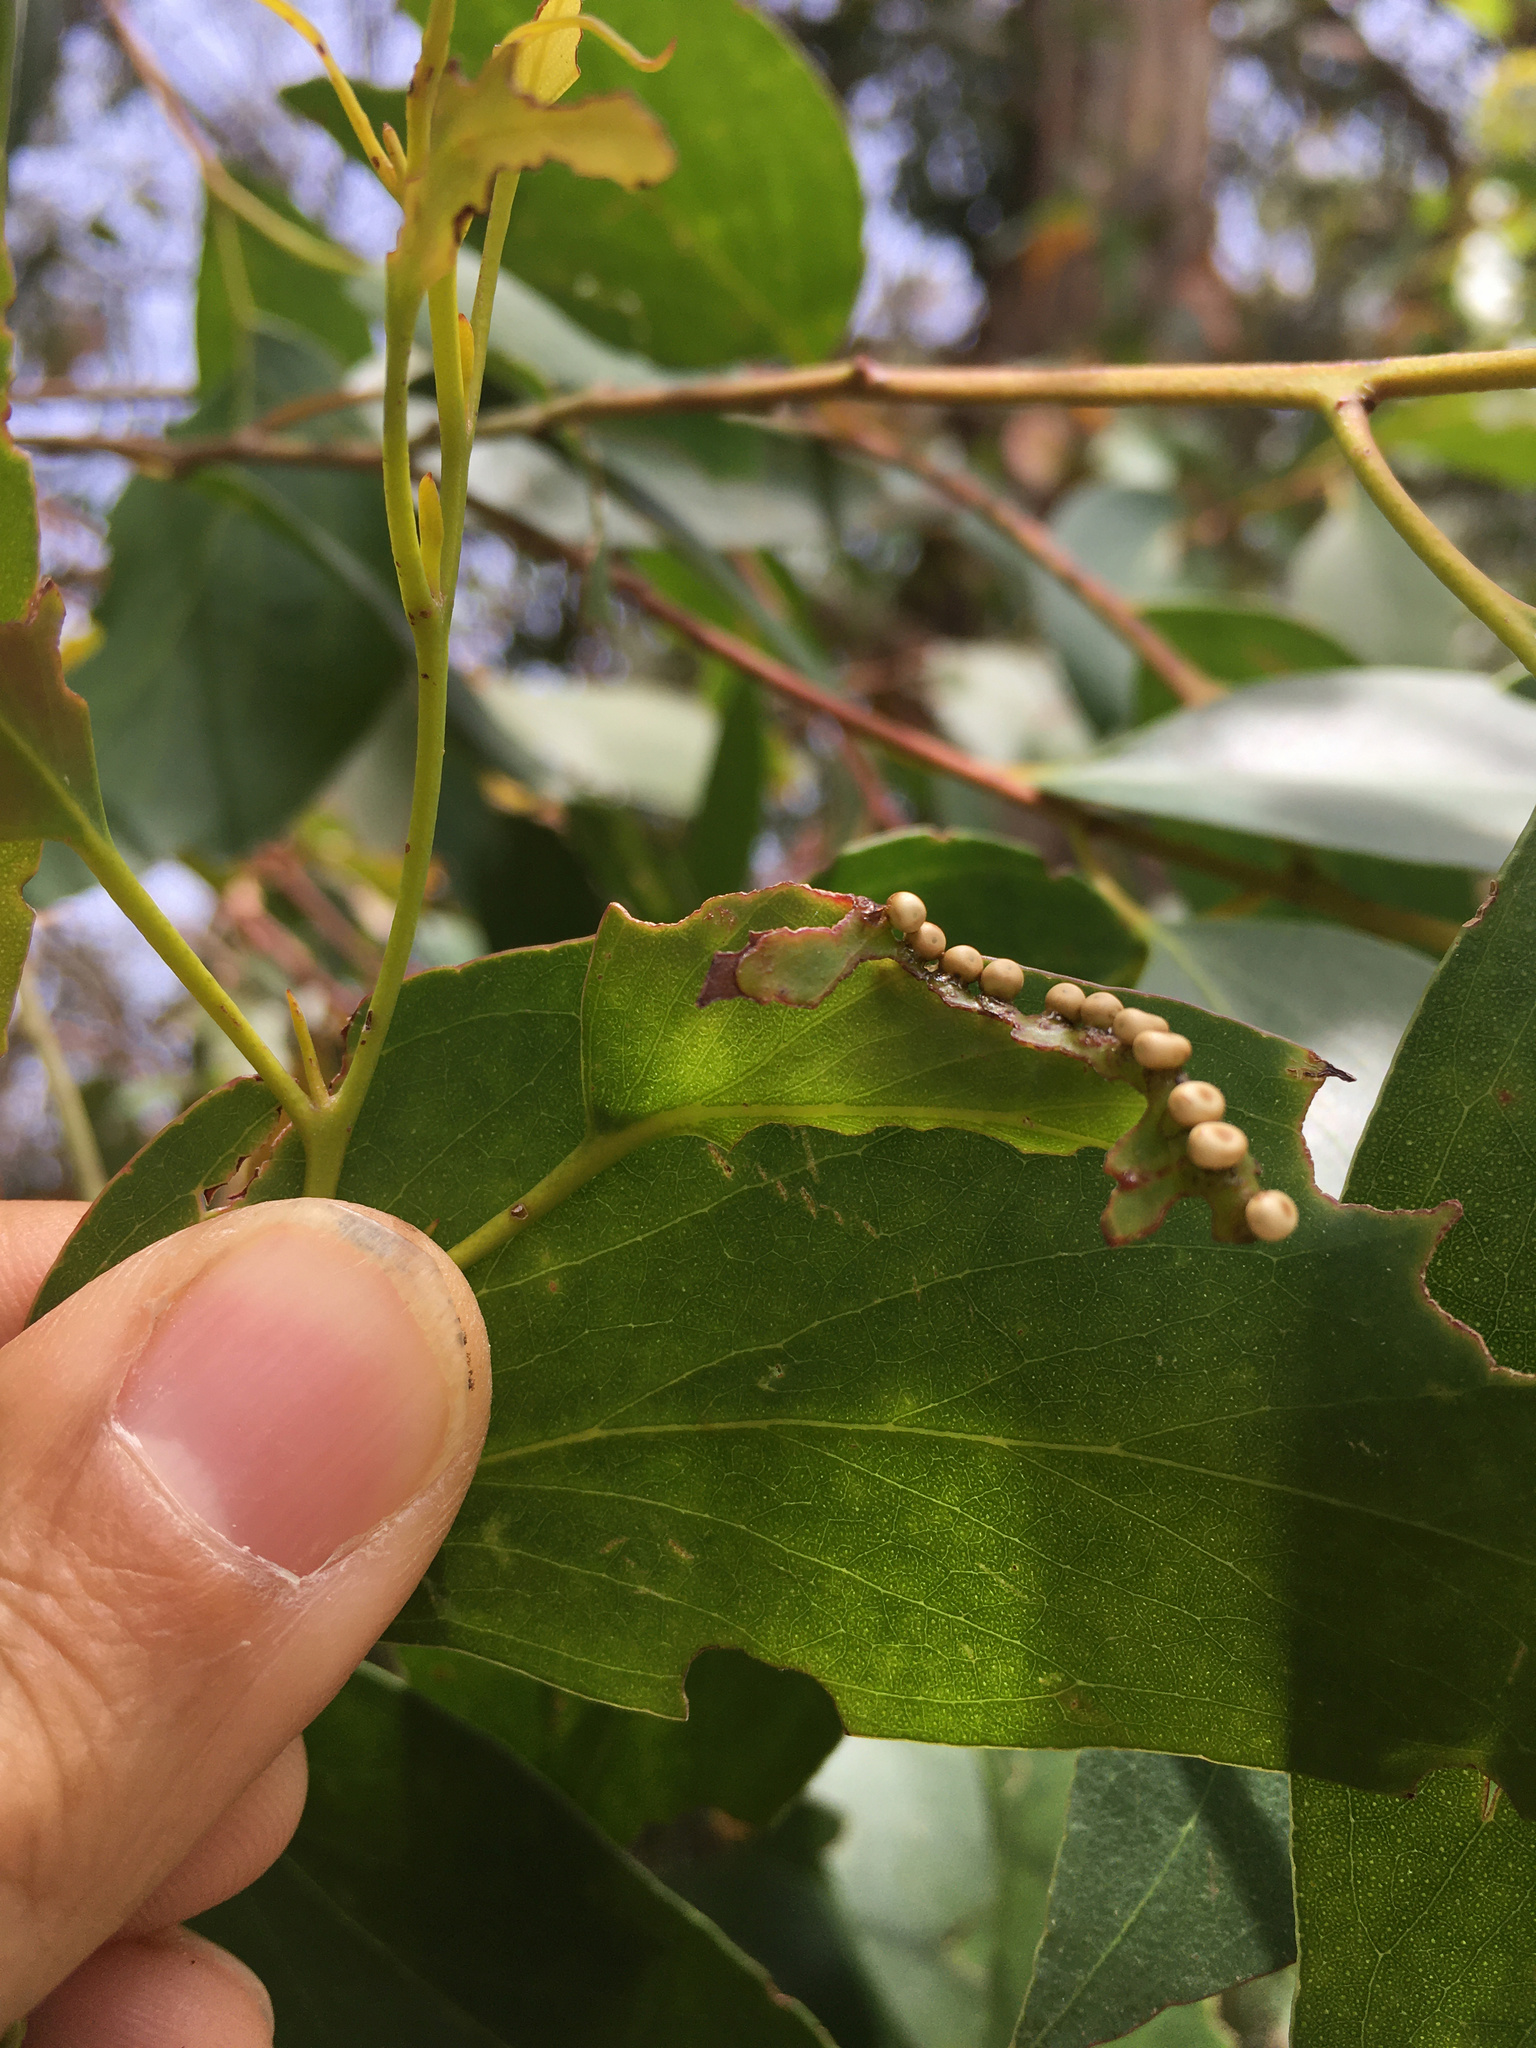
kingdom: Animalia
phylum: Arthropoda
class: Insecta
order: Lepidoptera
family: Saturniidae
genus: Opodiphthera
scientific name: Opodiphthera
